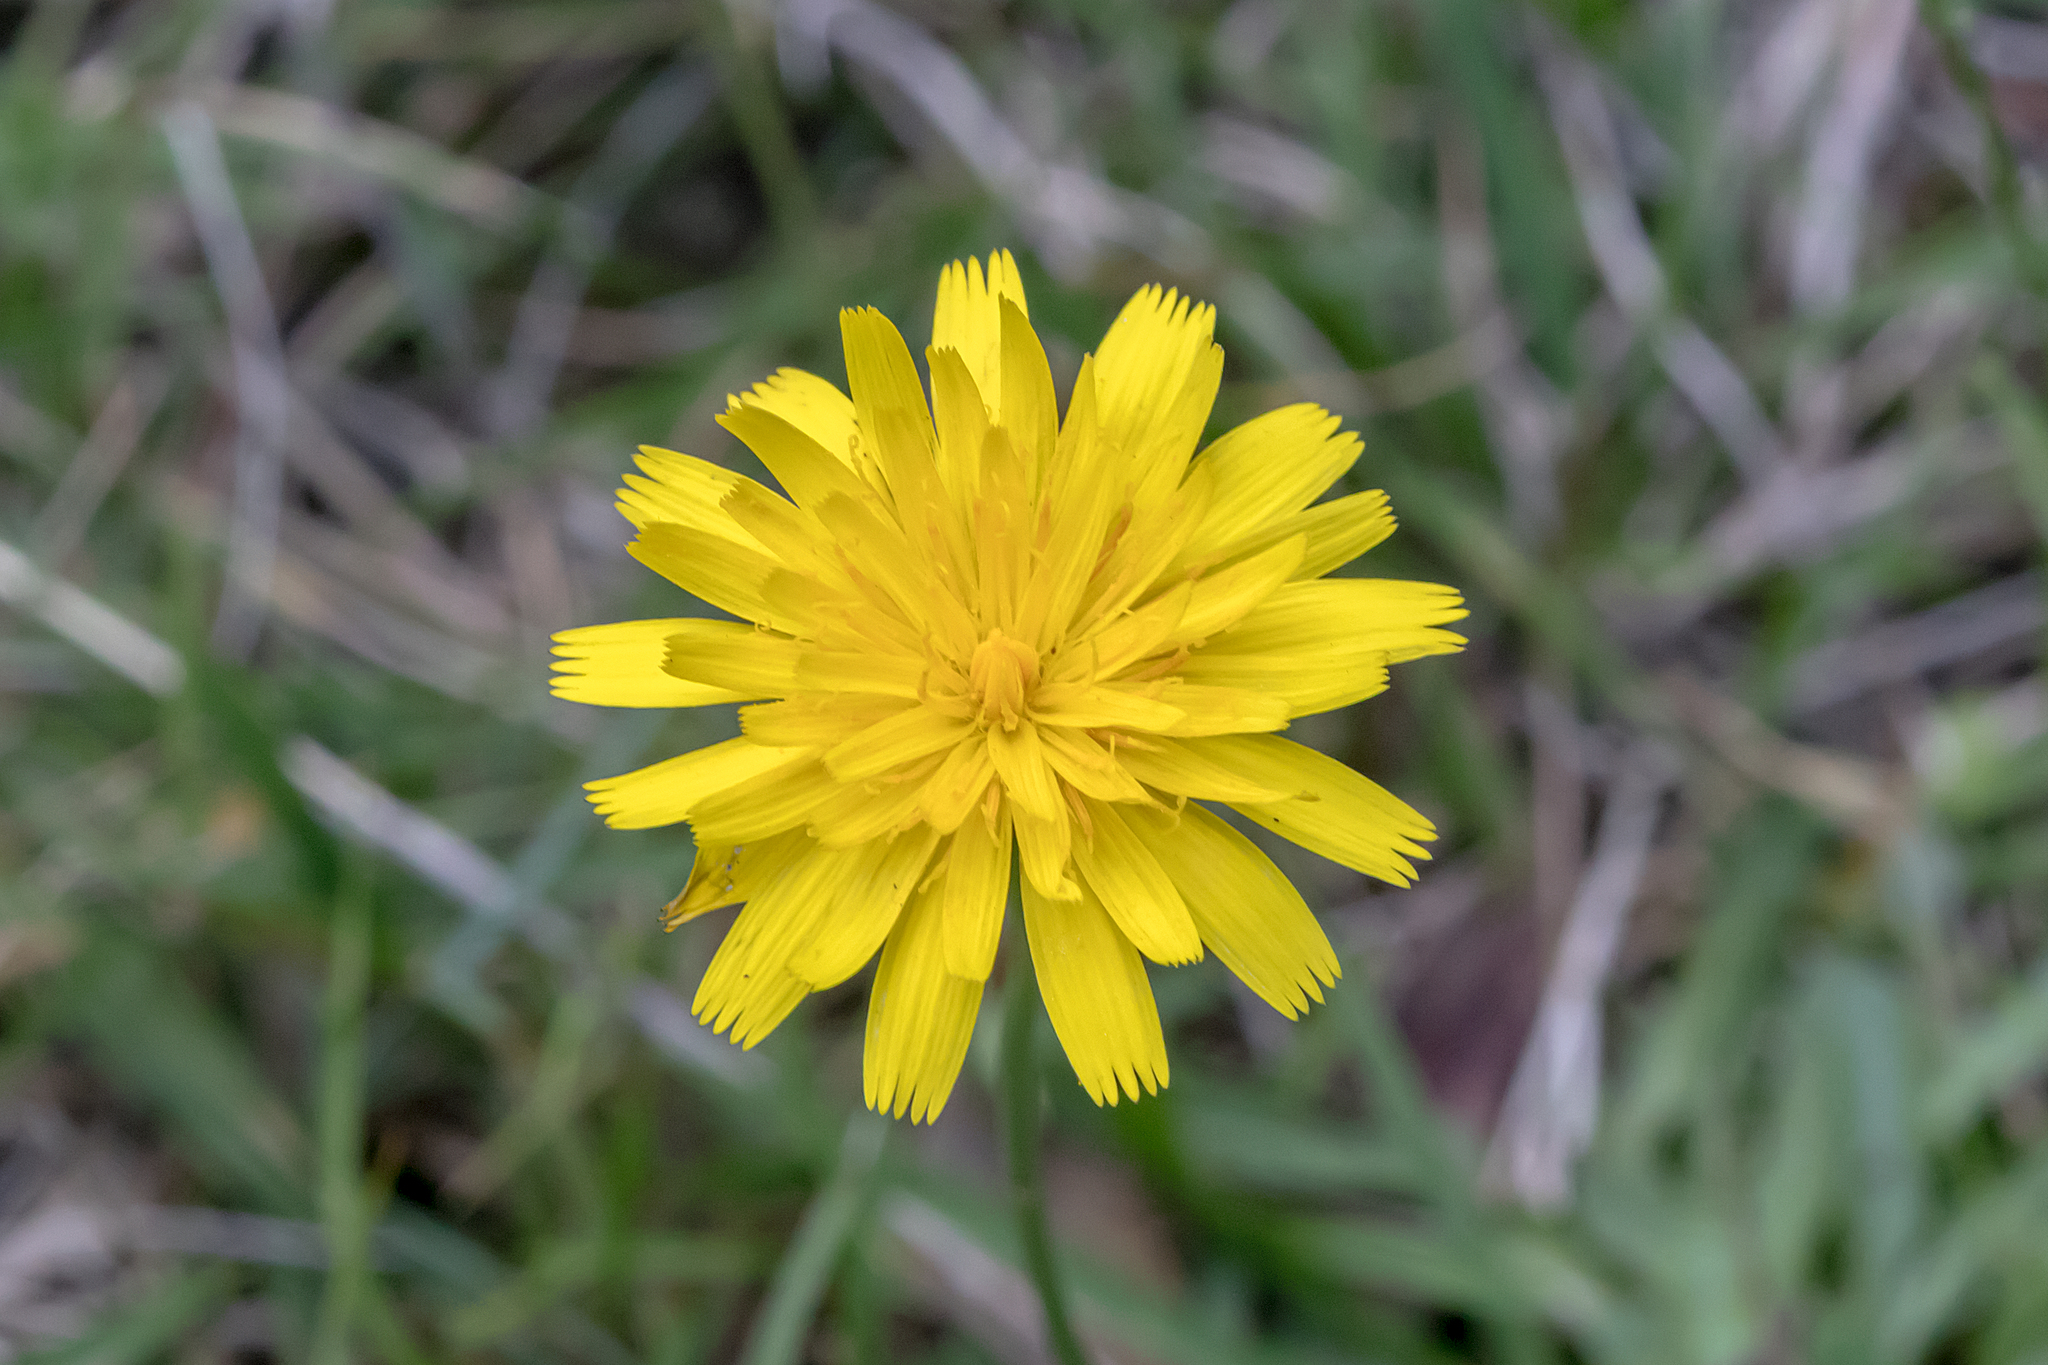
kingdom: Plantae
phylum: Tracheophyta
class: Magnoliopsida
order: Asterales
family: Asteraceae
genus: Hypochaeris
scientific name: Hypochaeris radicata
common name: Flatweed
